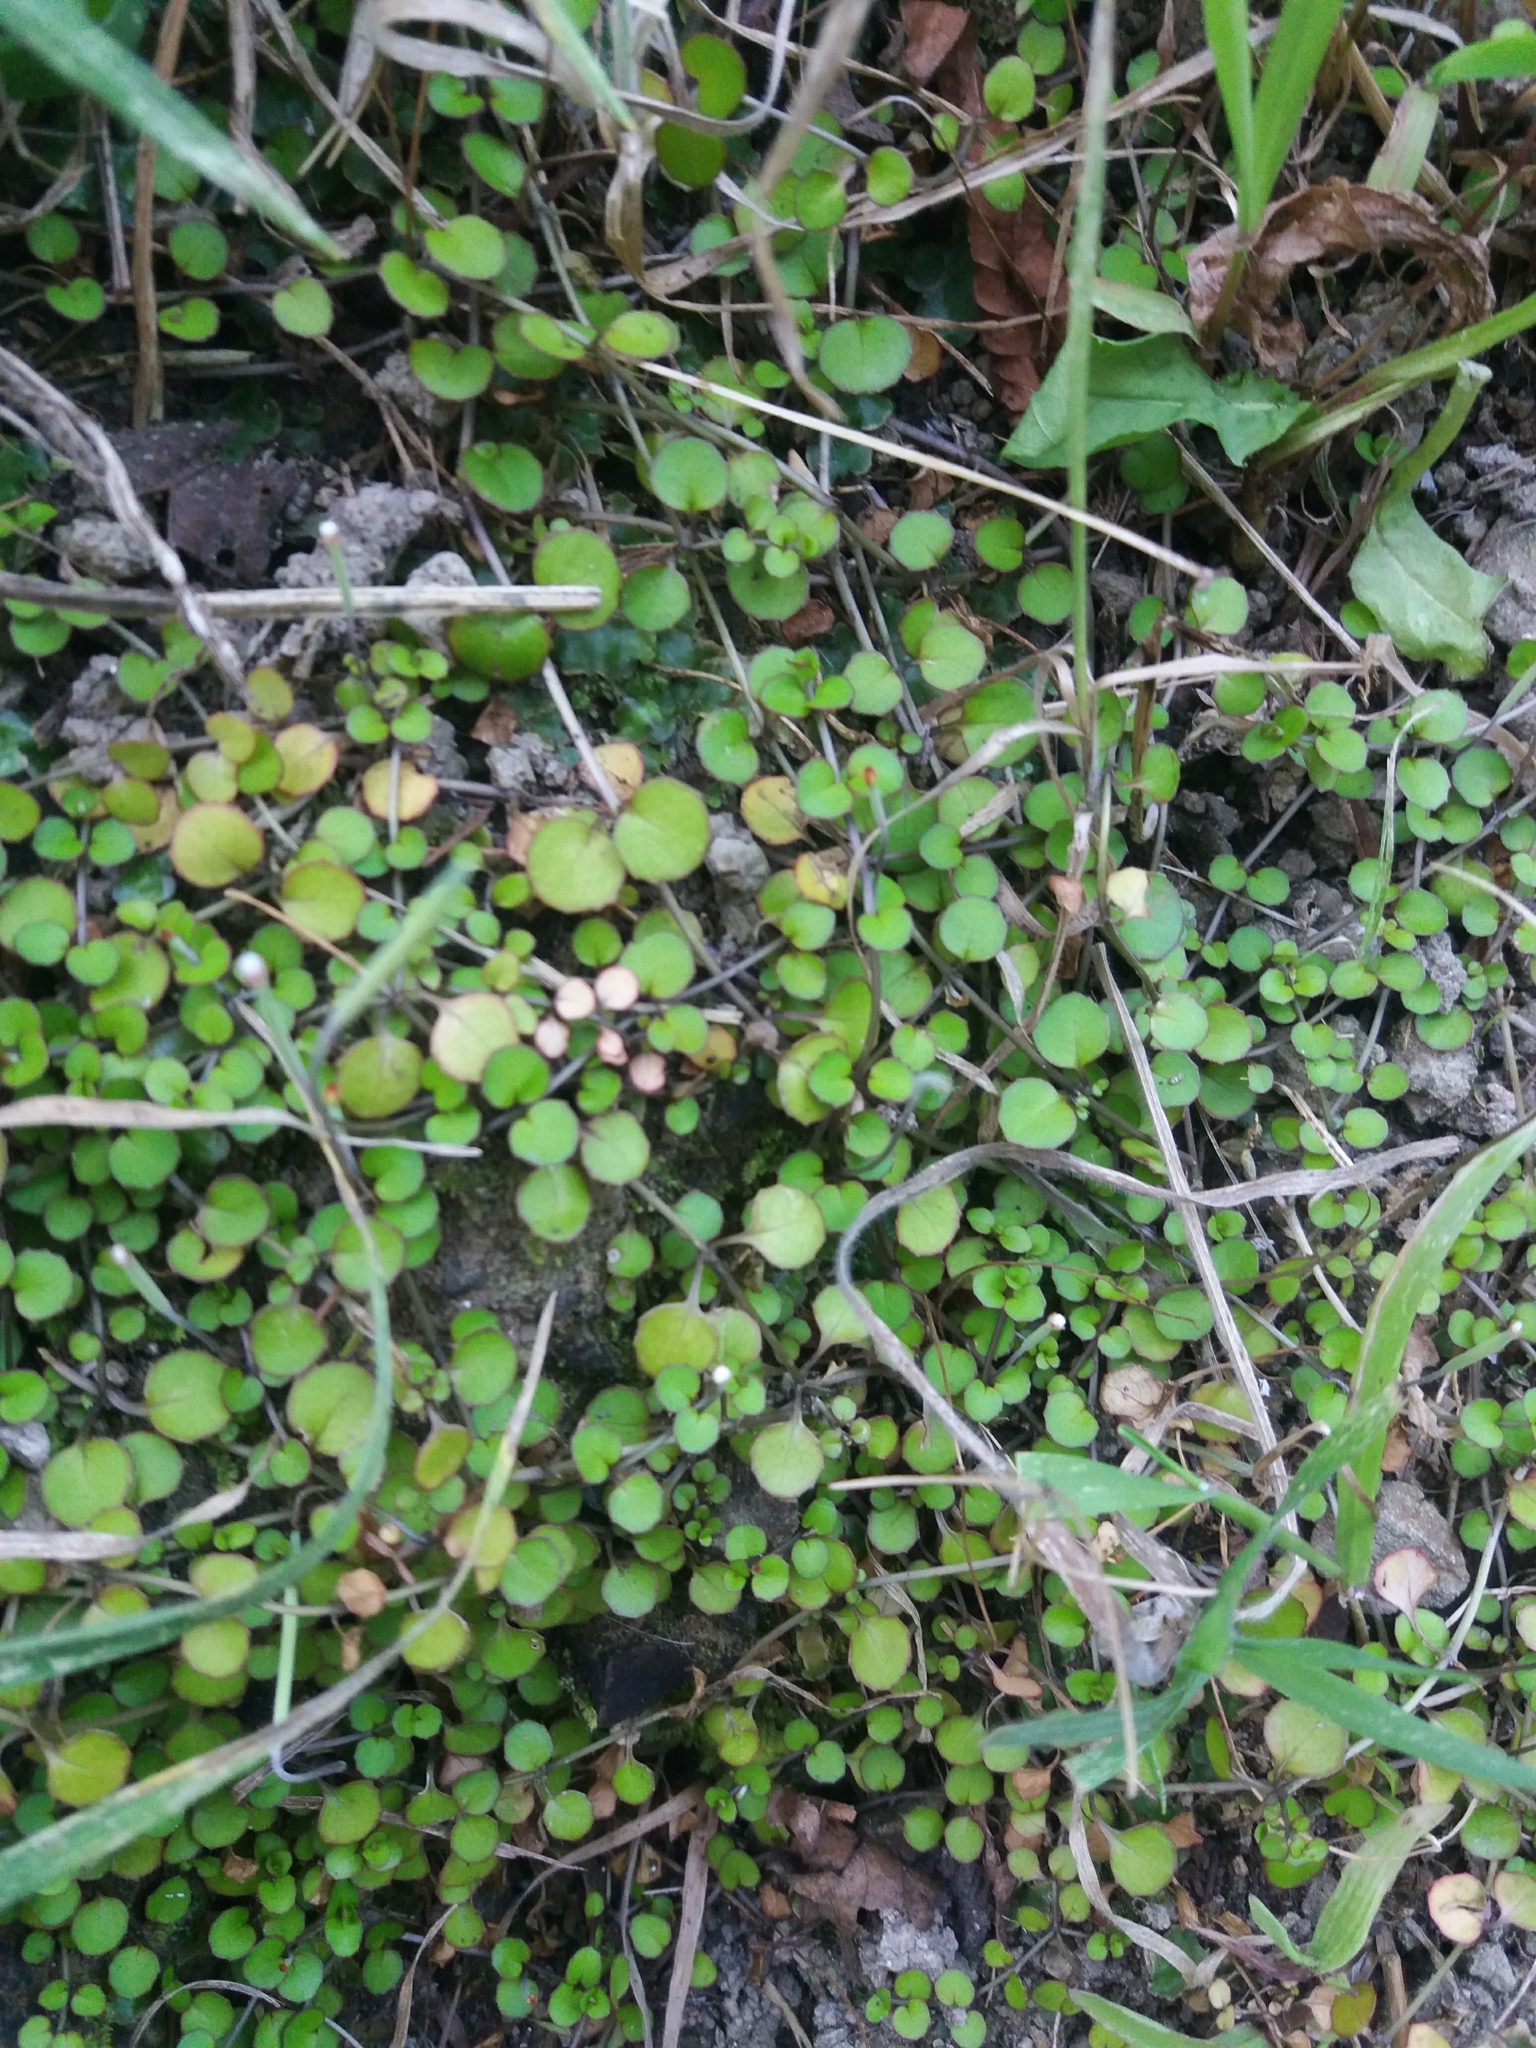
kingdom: Plantae
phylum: Tracheophyta
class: Magnoliopsida
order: Myrtales
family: Onagraceae
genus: Epilobium
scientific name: Epilobium nummularifolium
